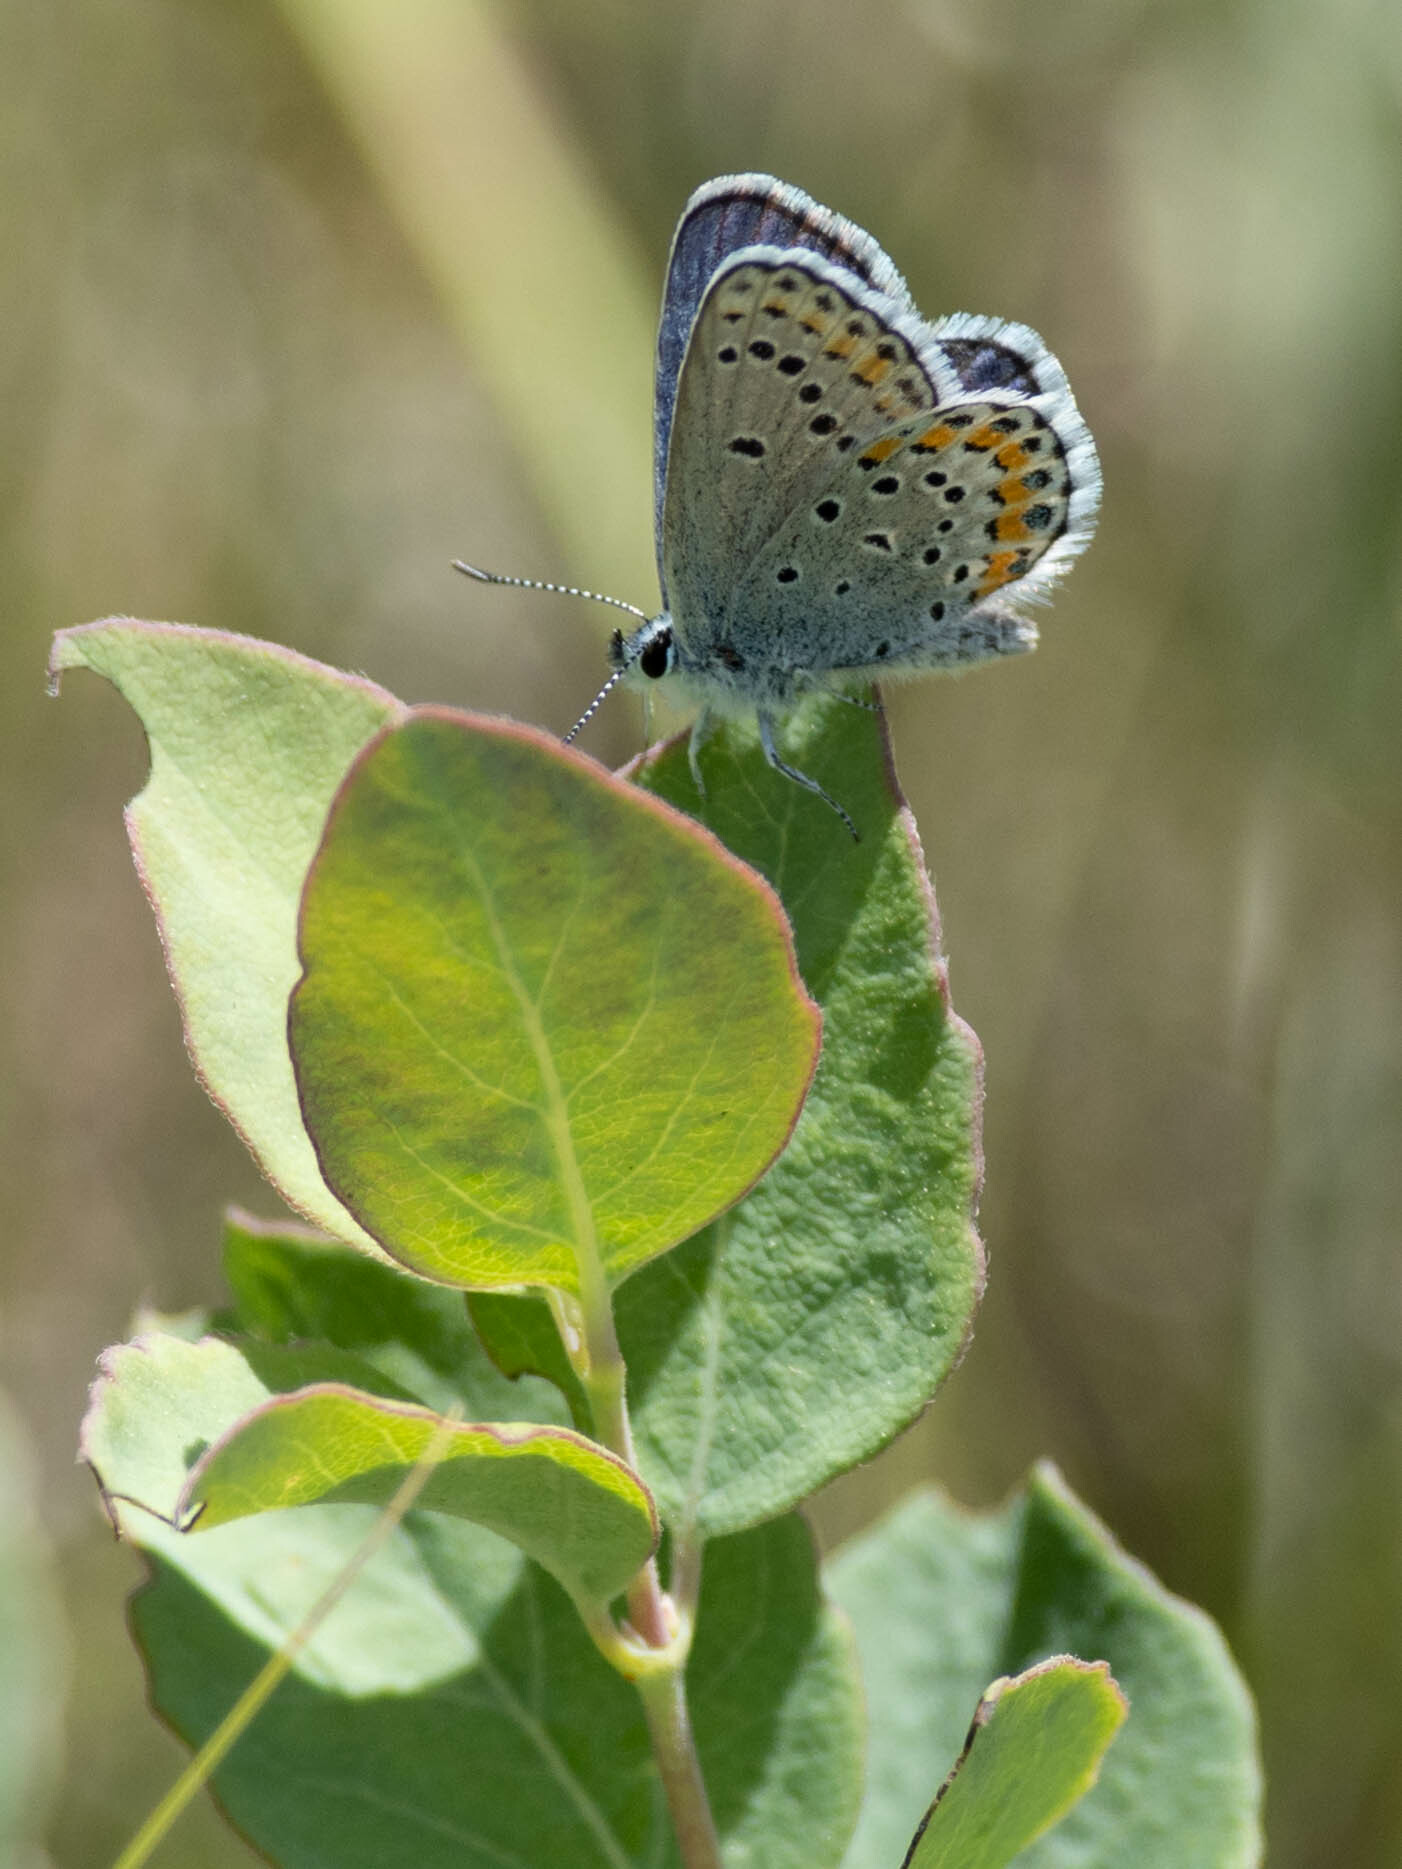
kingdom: Animalia
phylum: Arthropoda
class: Insecta
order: Lepidoptera
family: Lycaenidae
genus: Lycaeides
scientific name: Lycaeides melissa
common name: Melissa blue
